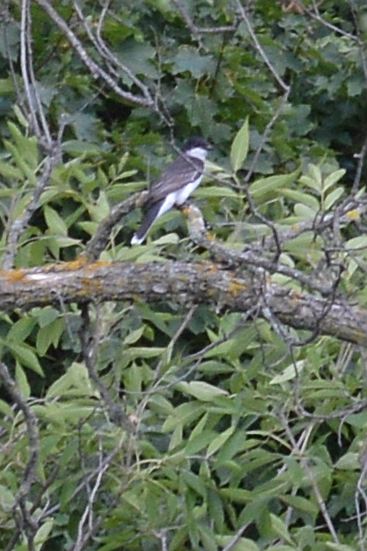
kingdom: Animalia
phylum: Chordata
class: Aves
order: Passeriformes
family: Tyrannidae
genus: Tyrannus
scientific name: Tyrannus tyrannus
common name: Eastern kingbird
